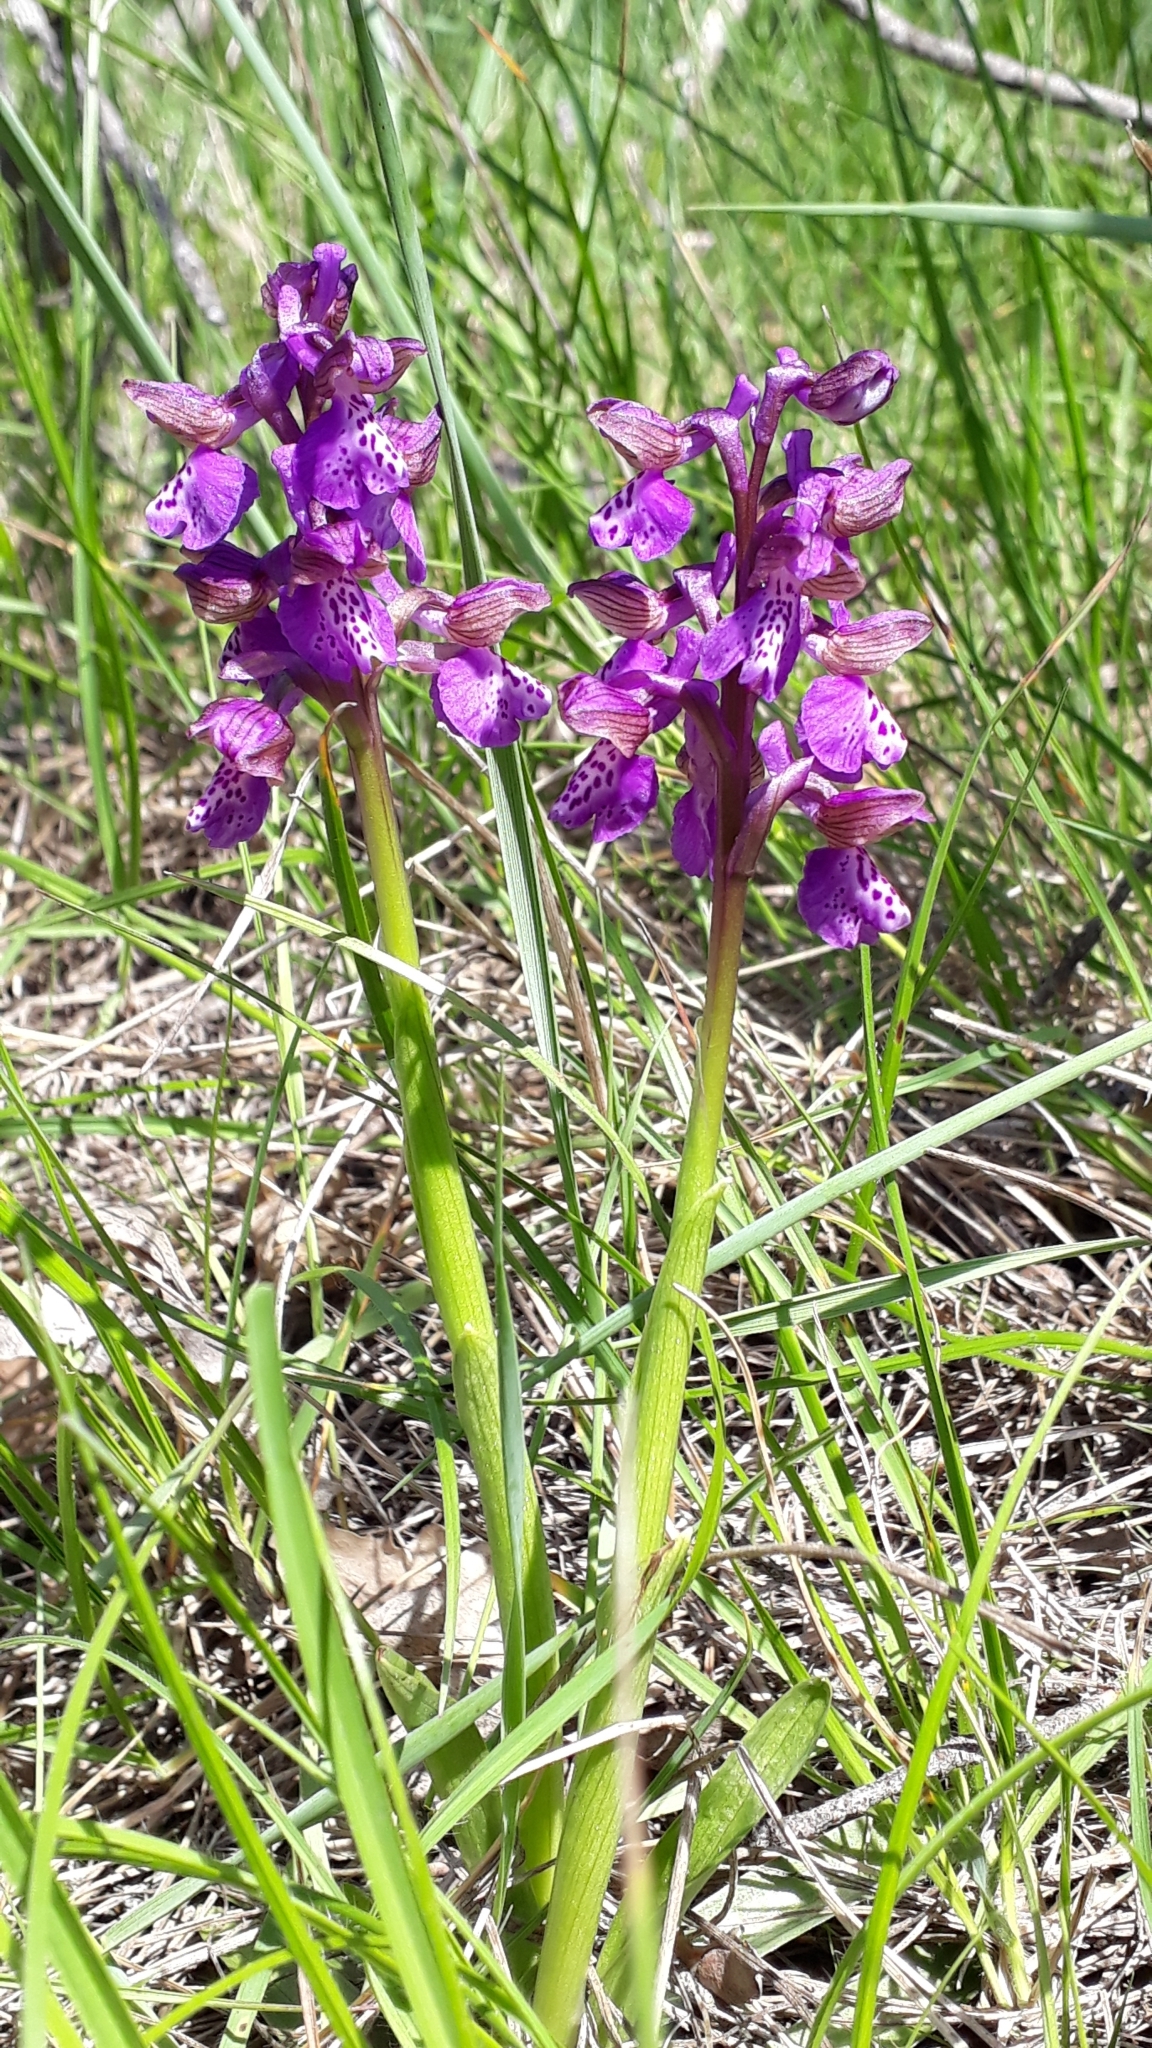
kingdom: Plantae
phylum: Tracheophyta
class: Liliopsida
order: Asparagales
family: Orchidaceae
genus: Anacamptis
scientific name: Anacamptis morio
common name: Green-winged orchid
